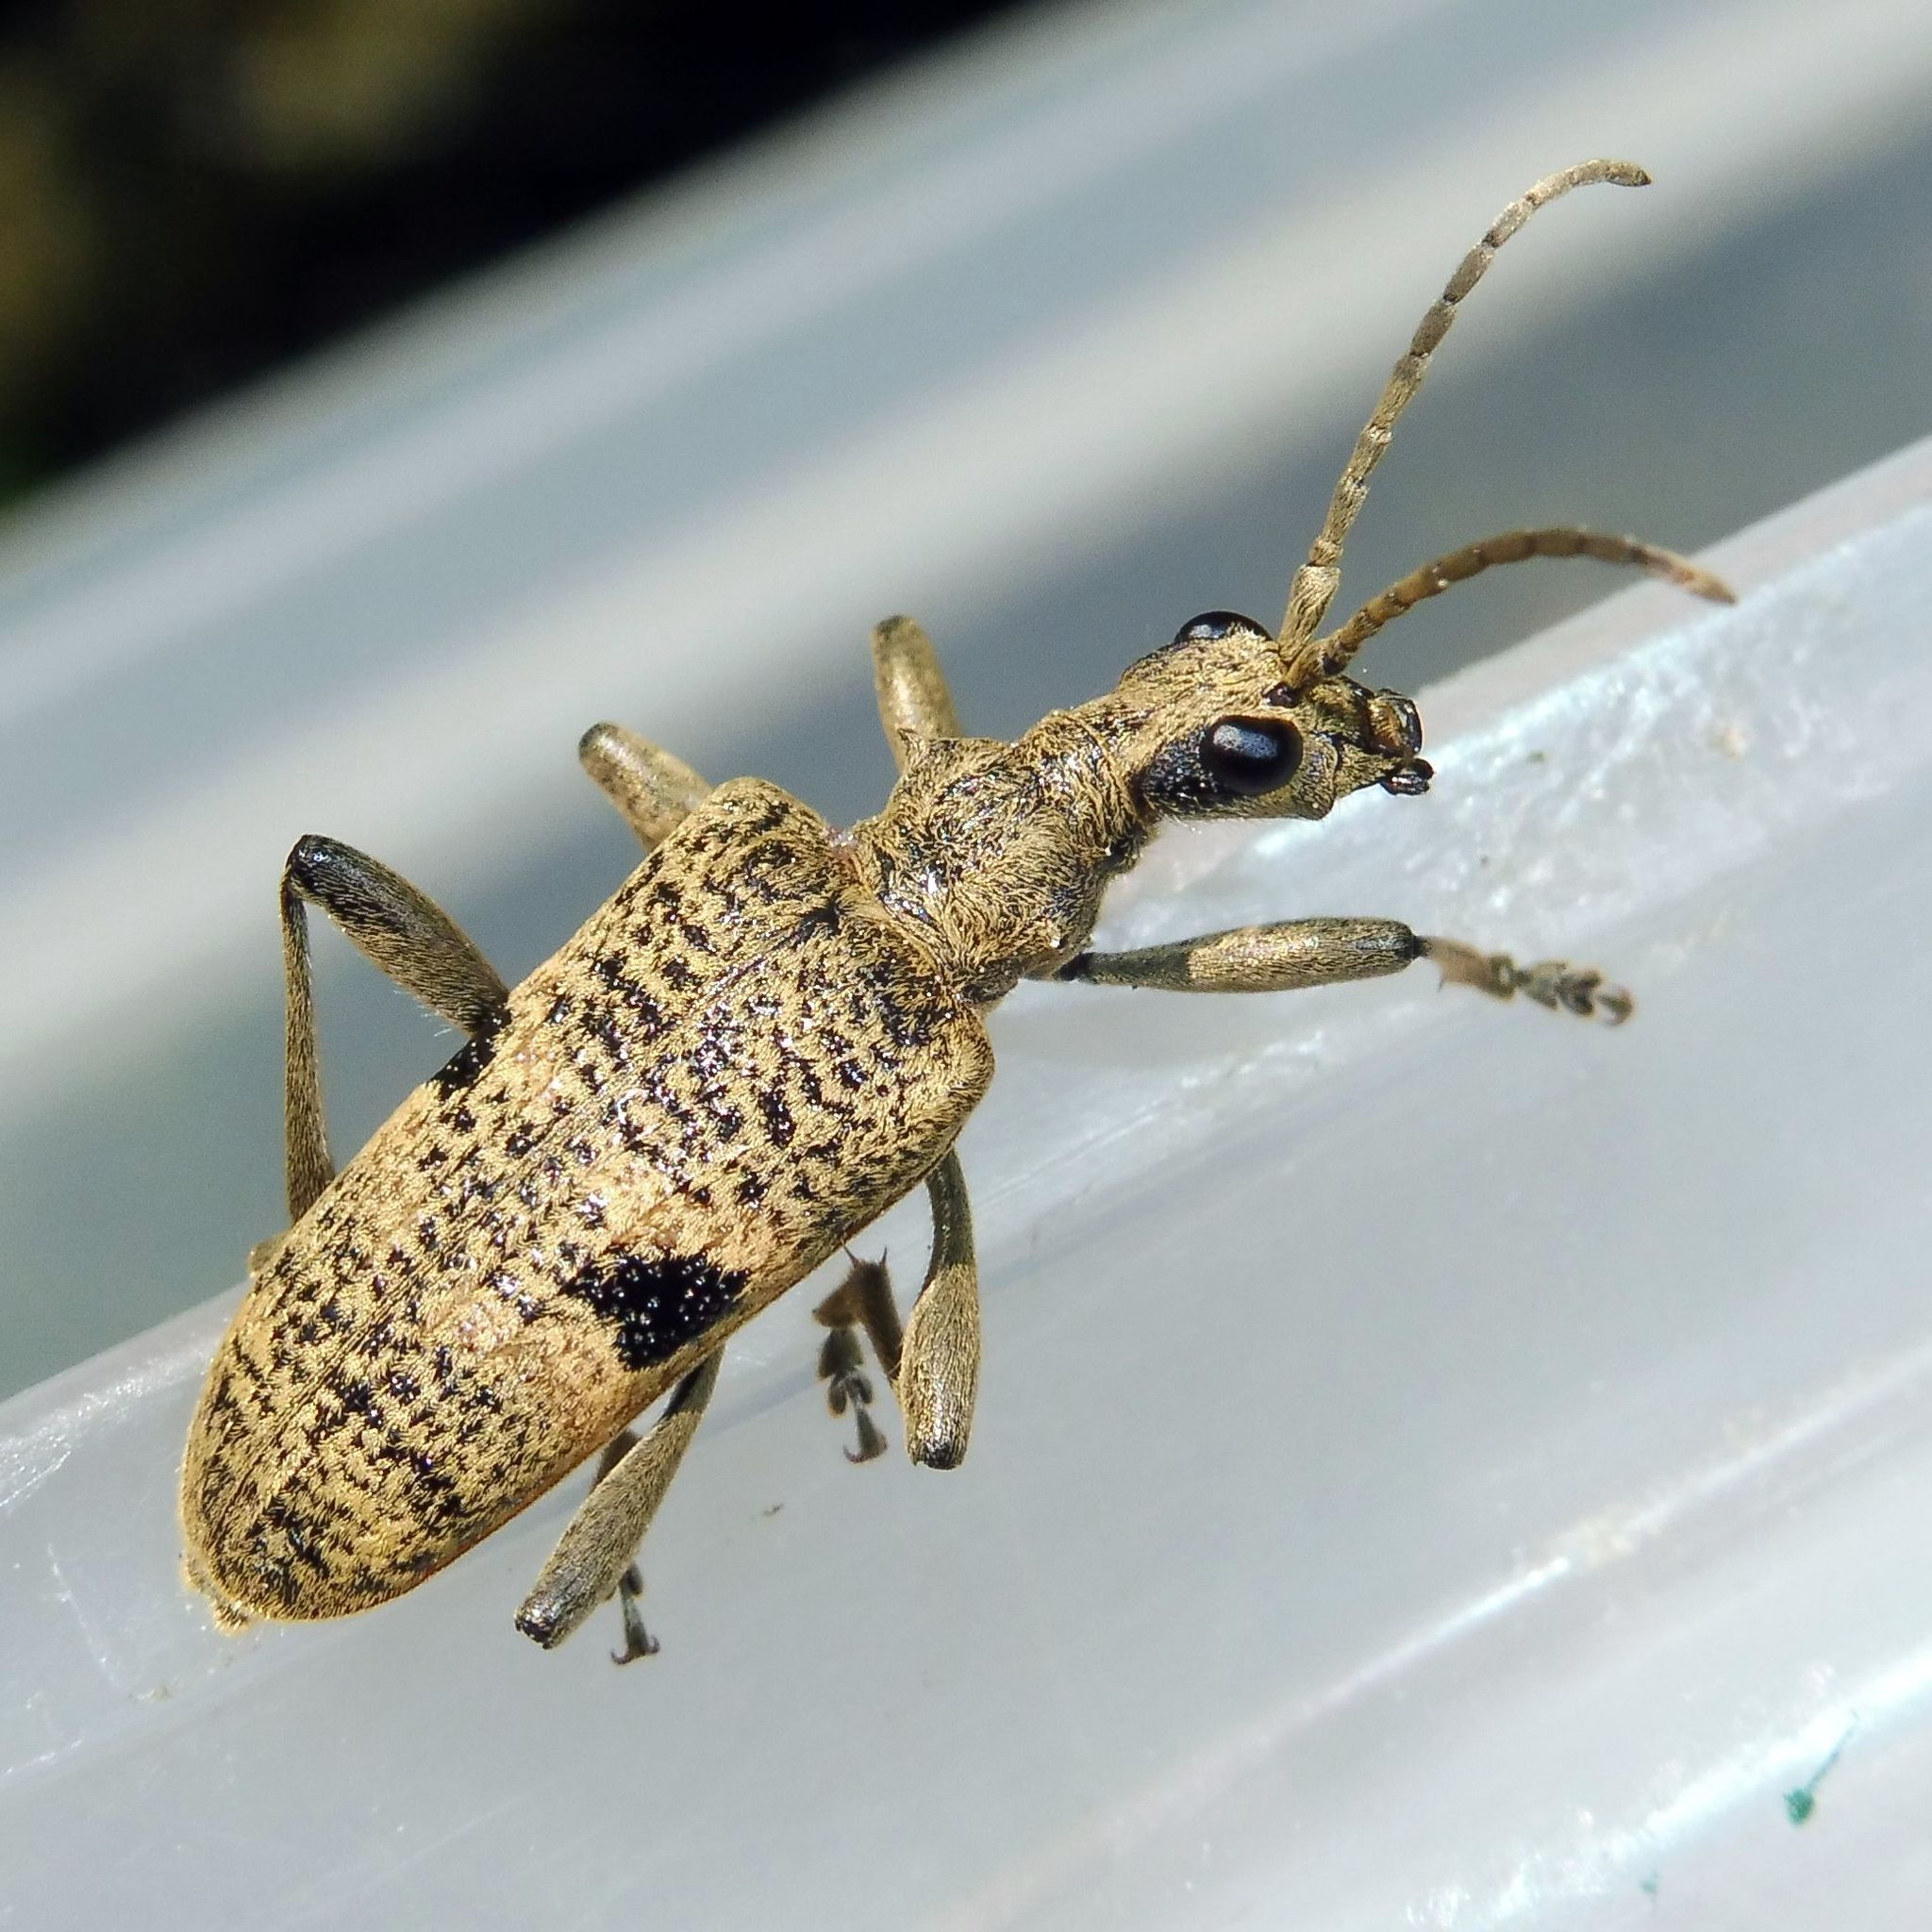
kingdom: Animalia
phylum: Arthropoda
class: Insecta
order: Coleoptera
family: Cerambycidae
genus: Rhagium
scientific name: Rhagium mordax
